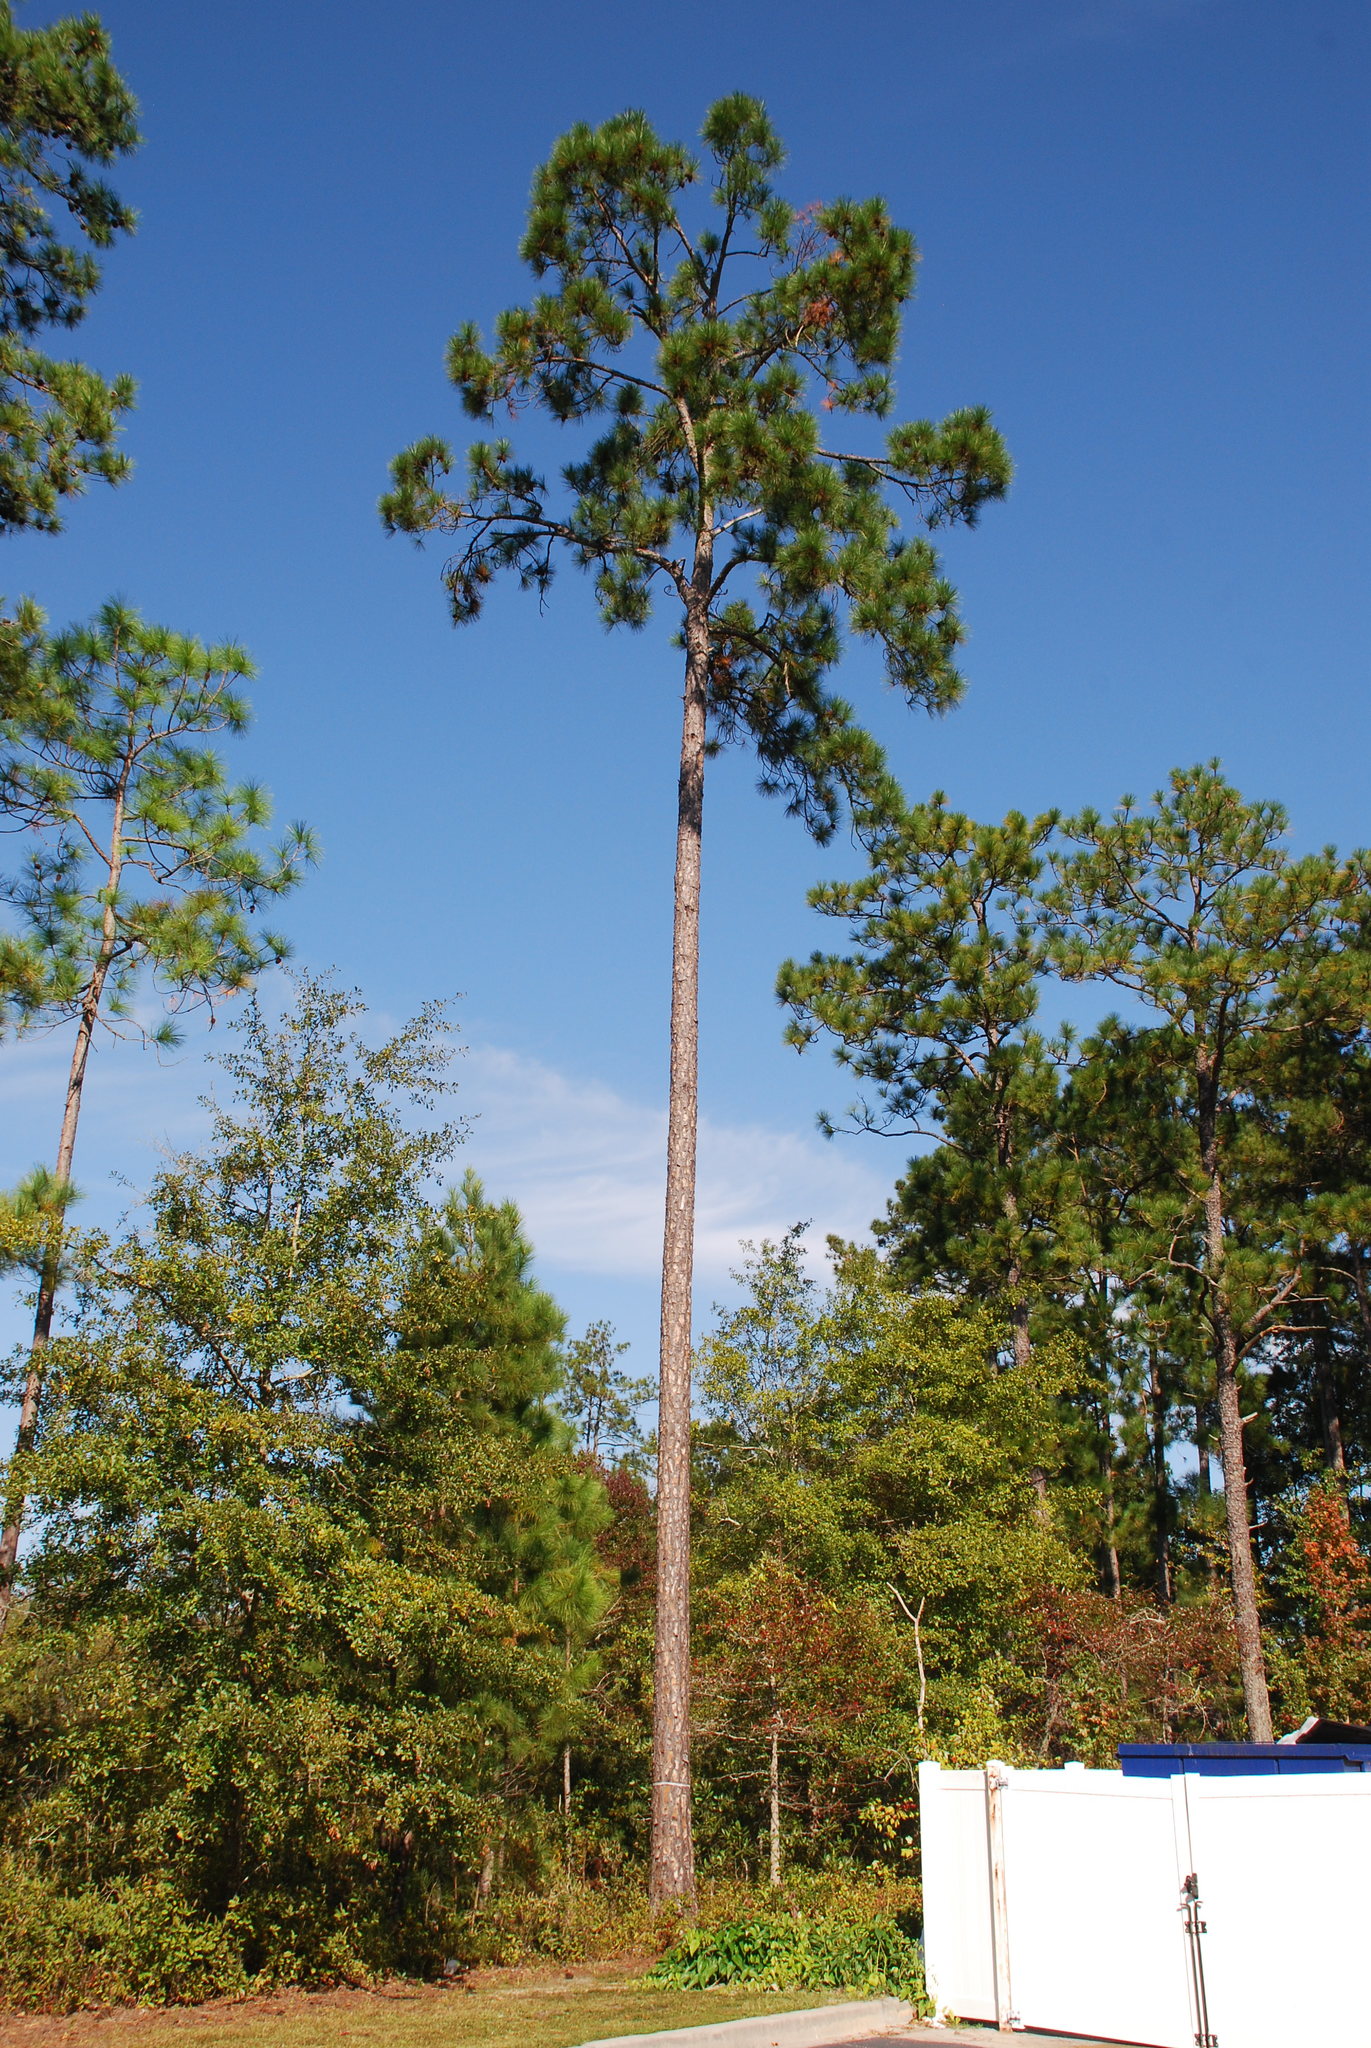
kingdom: Plantae
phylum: Tracheophyta
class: Pinopsida
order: Pinales
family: Pinaceae
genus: Pinus
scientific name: Pinus elliottii
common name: Slash pine
